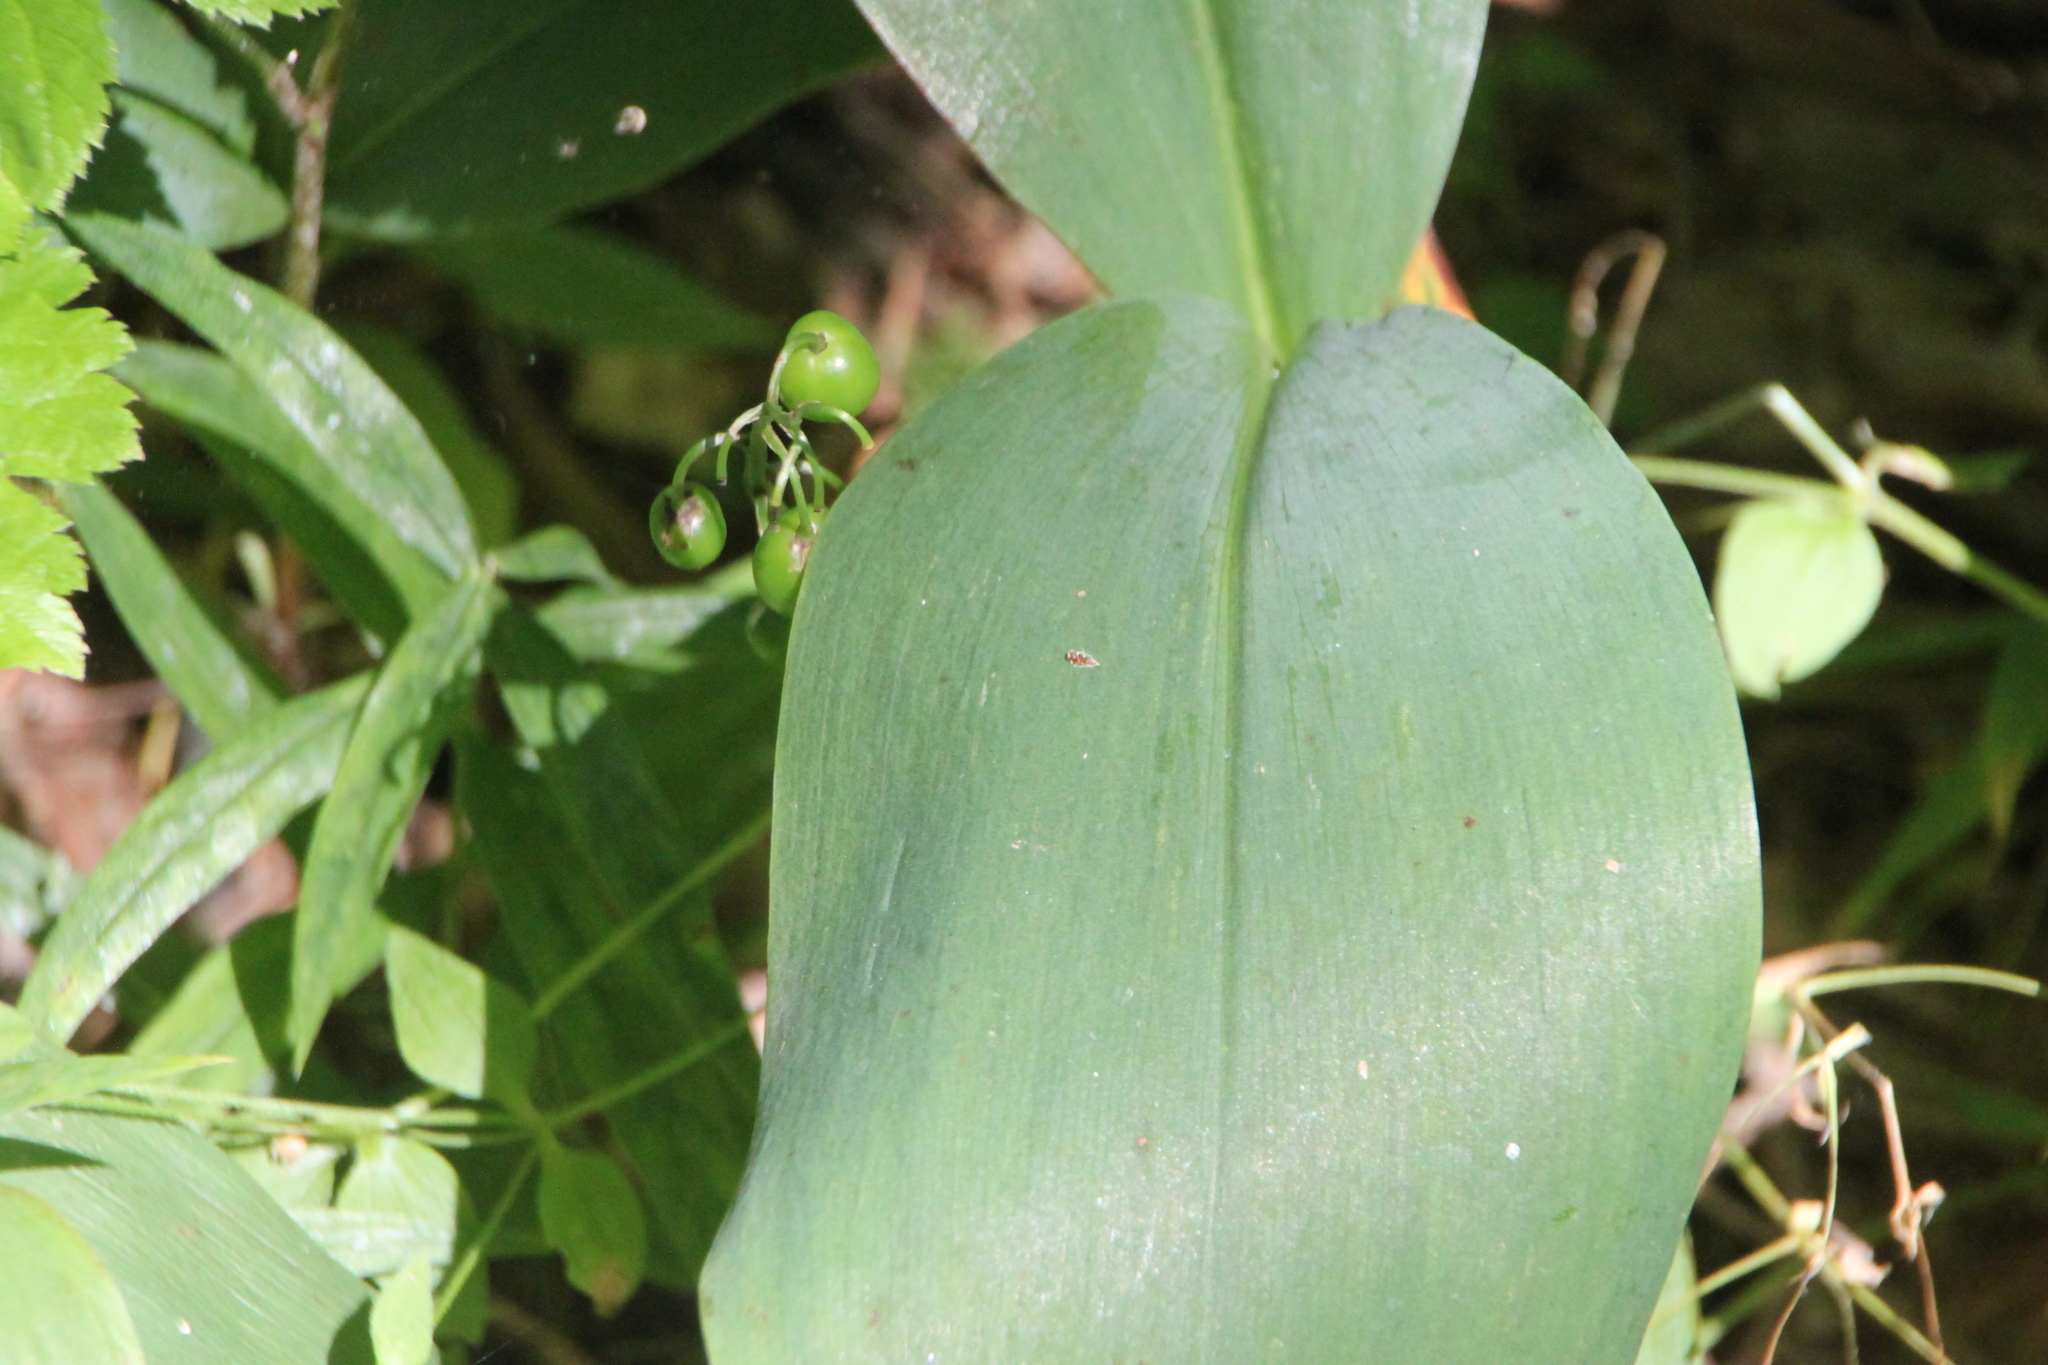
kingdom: Plantae
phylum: Tracheophyta
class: Liliopsida
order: Asparagales
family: Asparagaceae
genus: Convallaria
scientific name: Convallaria majalis
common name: Lily-of-the-valley
